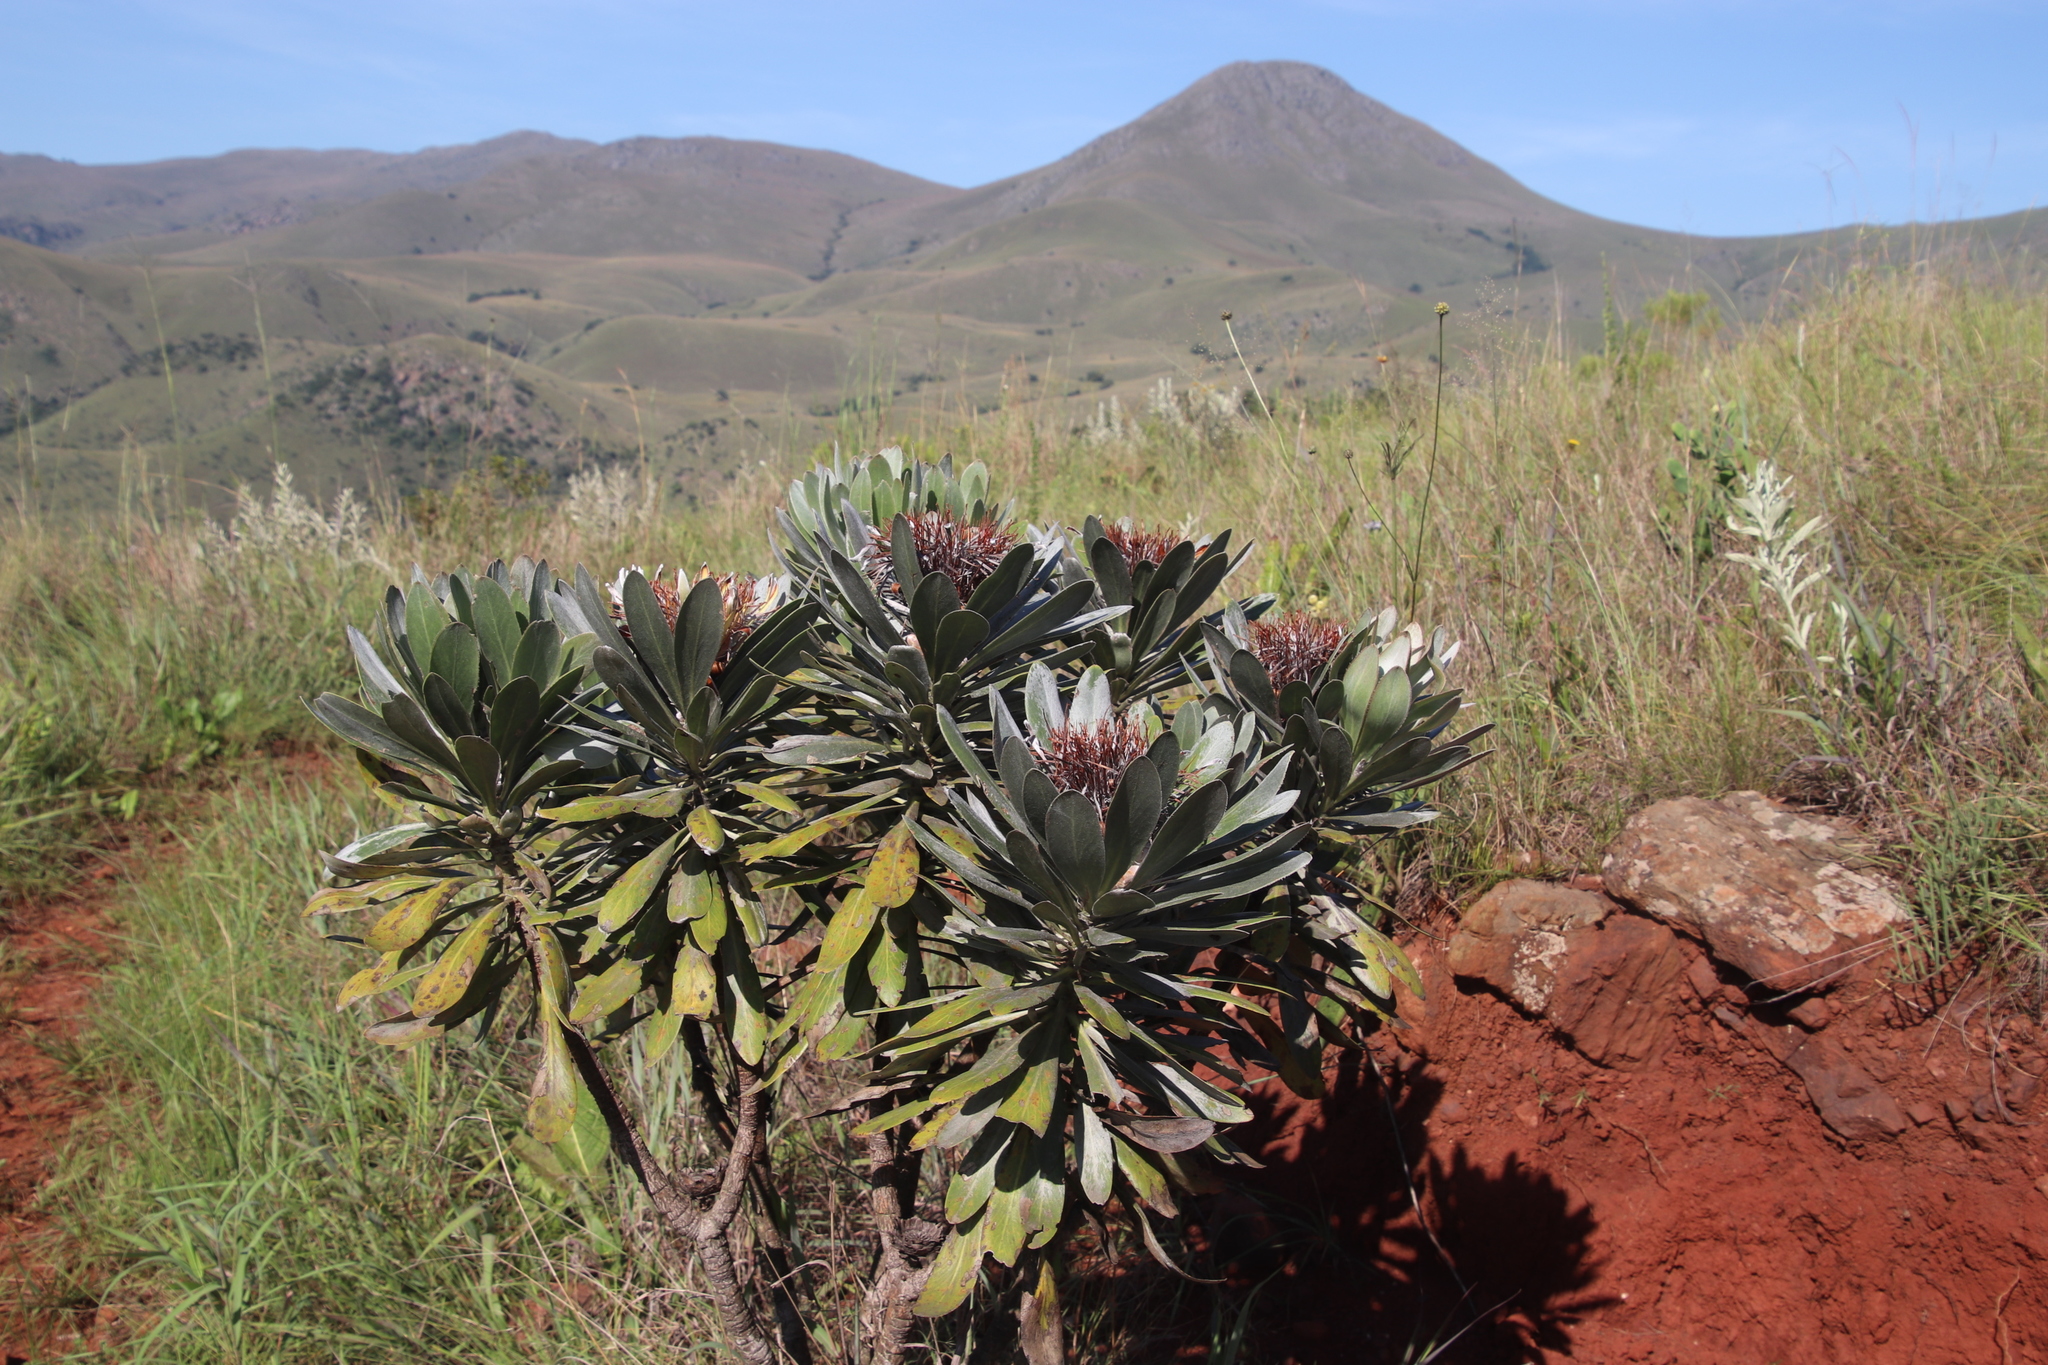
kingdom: Plantae
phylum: Tracheophyta
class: Magnoliopsida
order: Proteales
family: Proteaceae
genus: Protea
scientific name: Protea roupelliae
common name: Silver sugarbush
